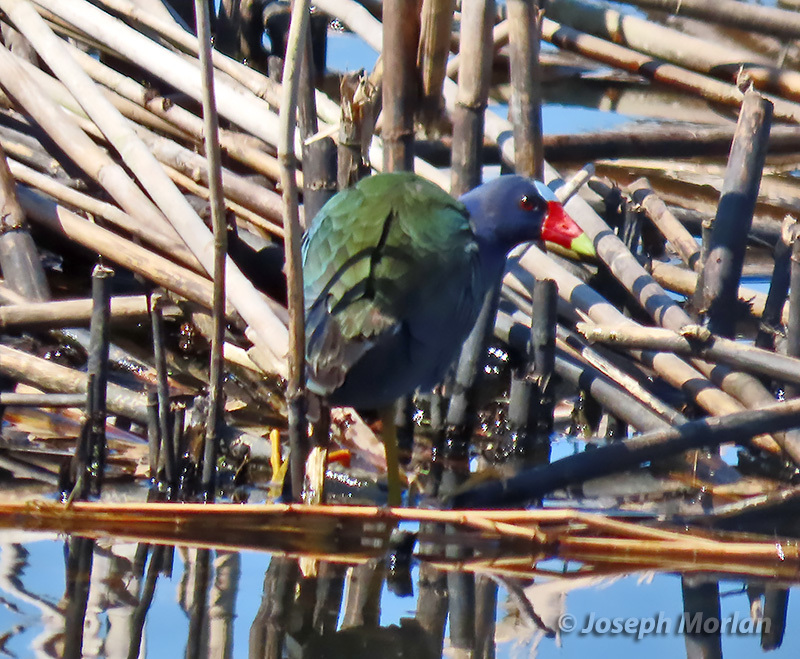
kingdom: Animalia
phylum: Chordata
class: Aves
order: Gruiformes
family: Rallidae
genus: Porphyrio
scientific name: Porphyrio martinica
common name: Purple gallinule
